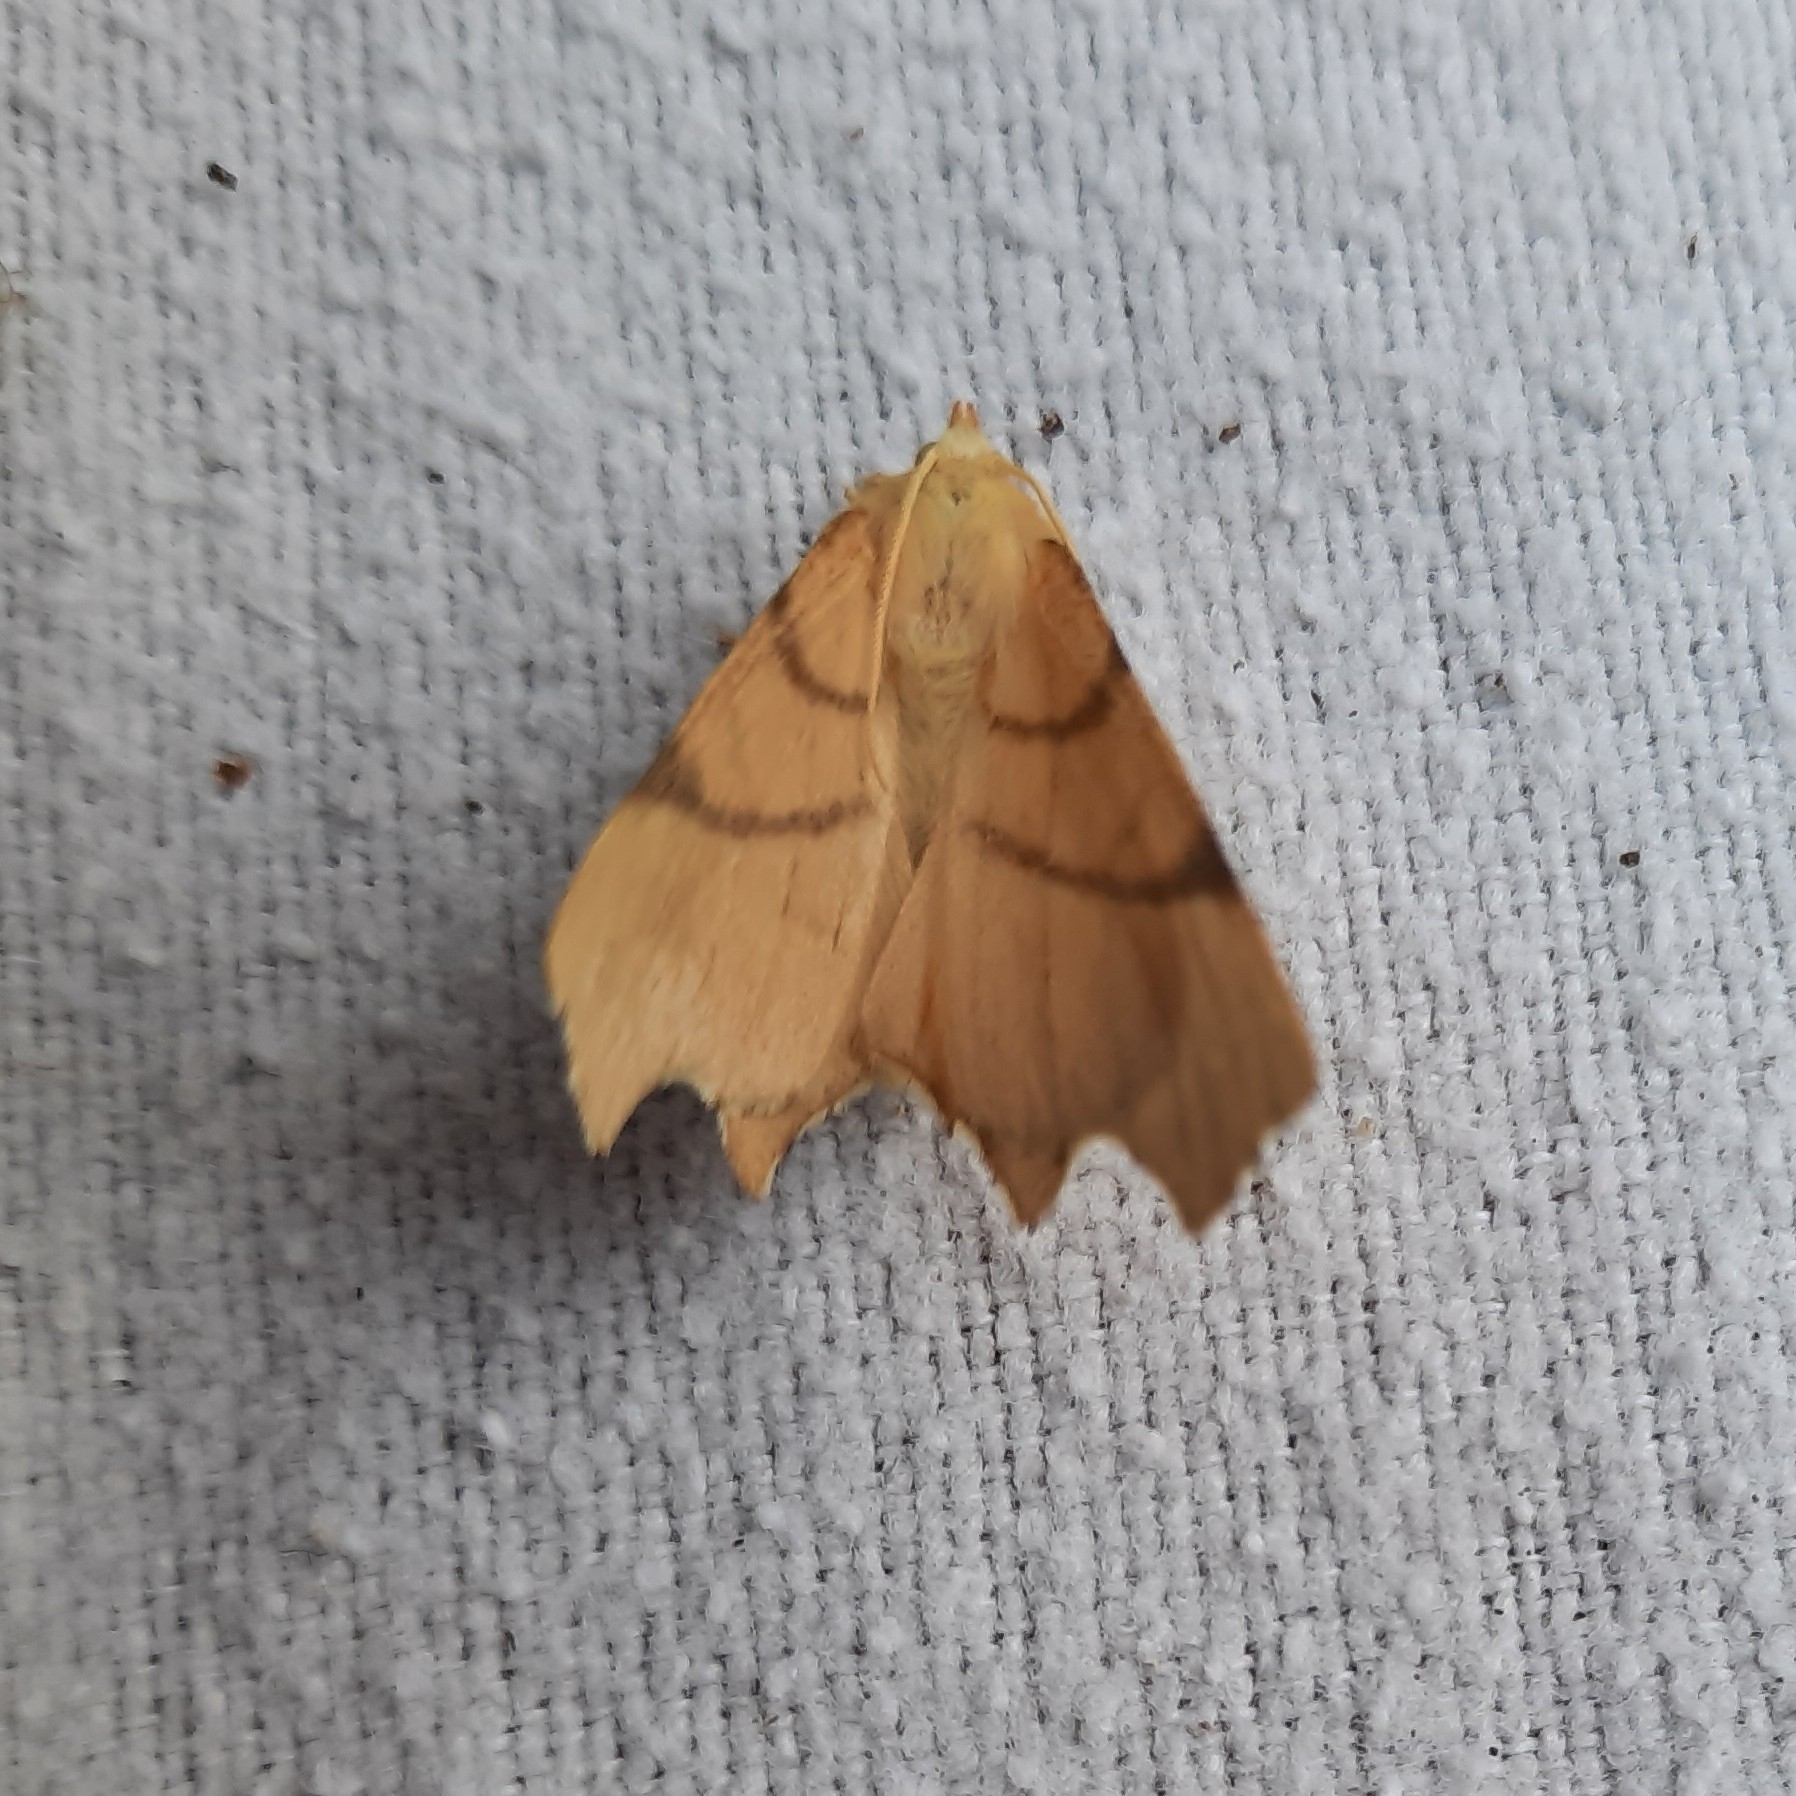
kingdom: Animalia
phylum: Arthropoda
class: Insecta
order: Lepidoptera
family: Geometridae
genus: Ennomos
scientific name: Ennomos erosaria
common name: September thorn
